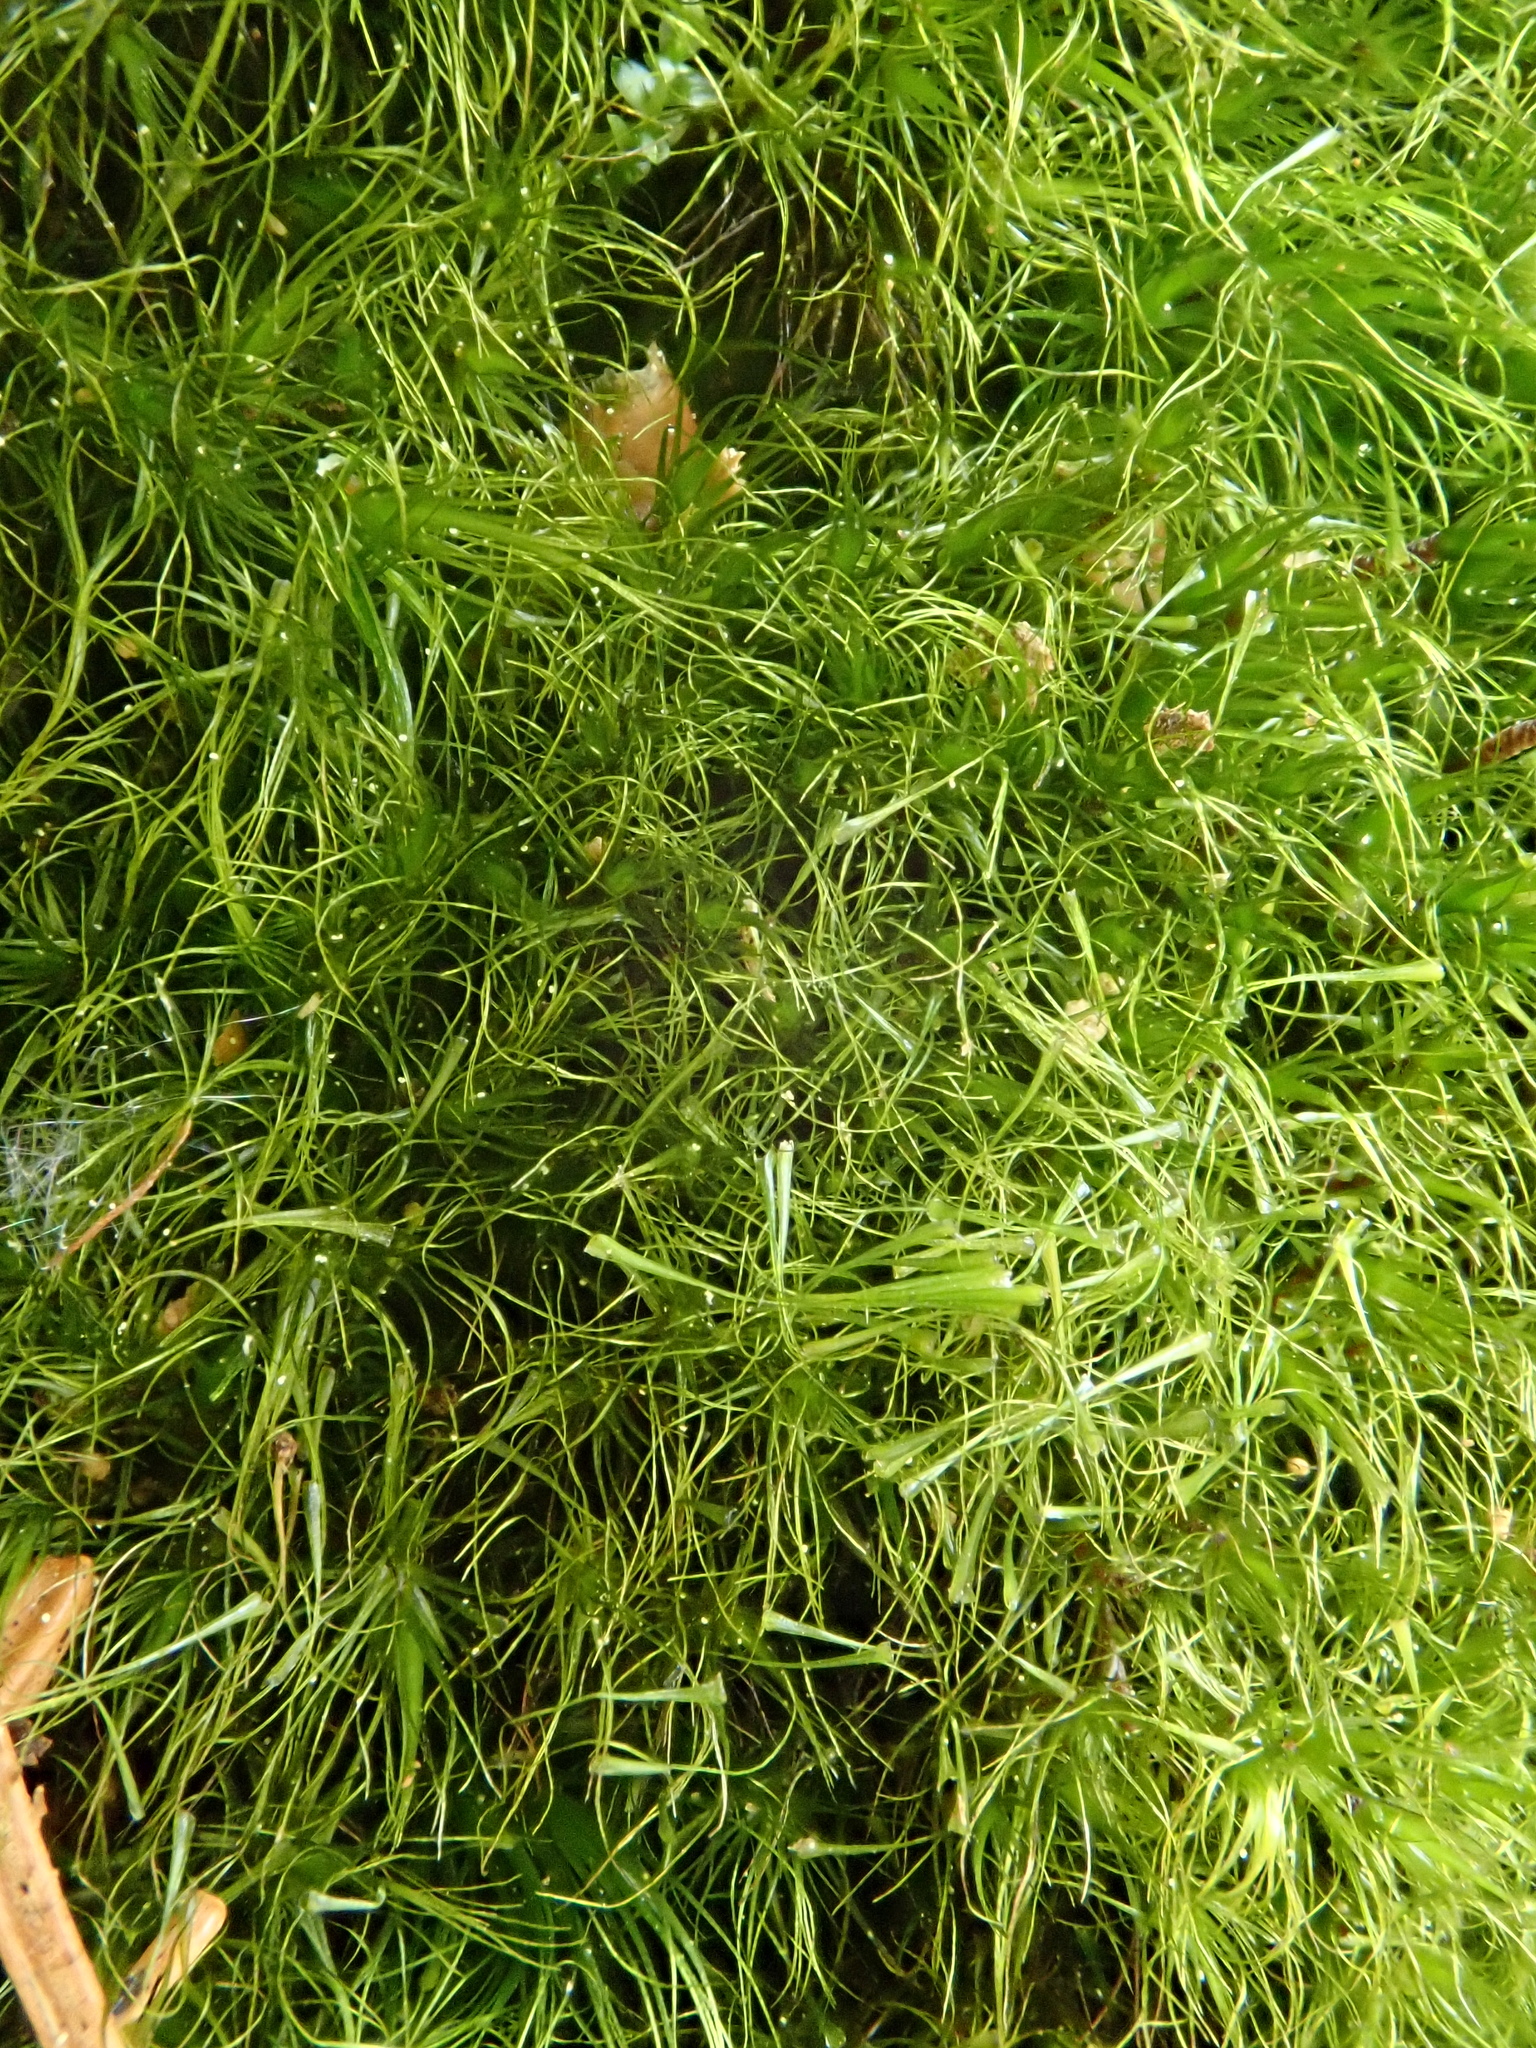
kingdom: Plantae
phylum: Bryophyta
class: Bryopsida
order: Dicranales
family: Leucobryaceae
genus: Dicranodontium
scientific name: Dicranodontium denudatum
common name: Beaked bow moss
